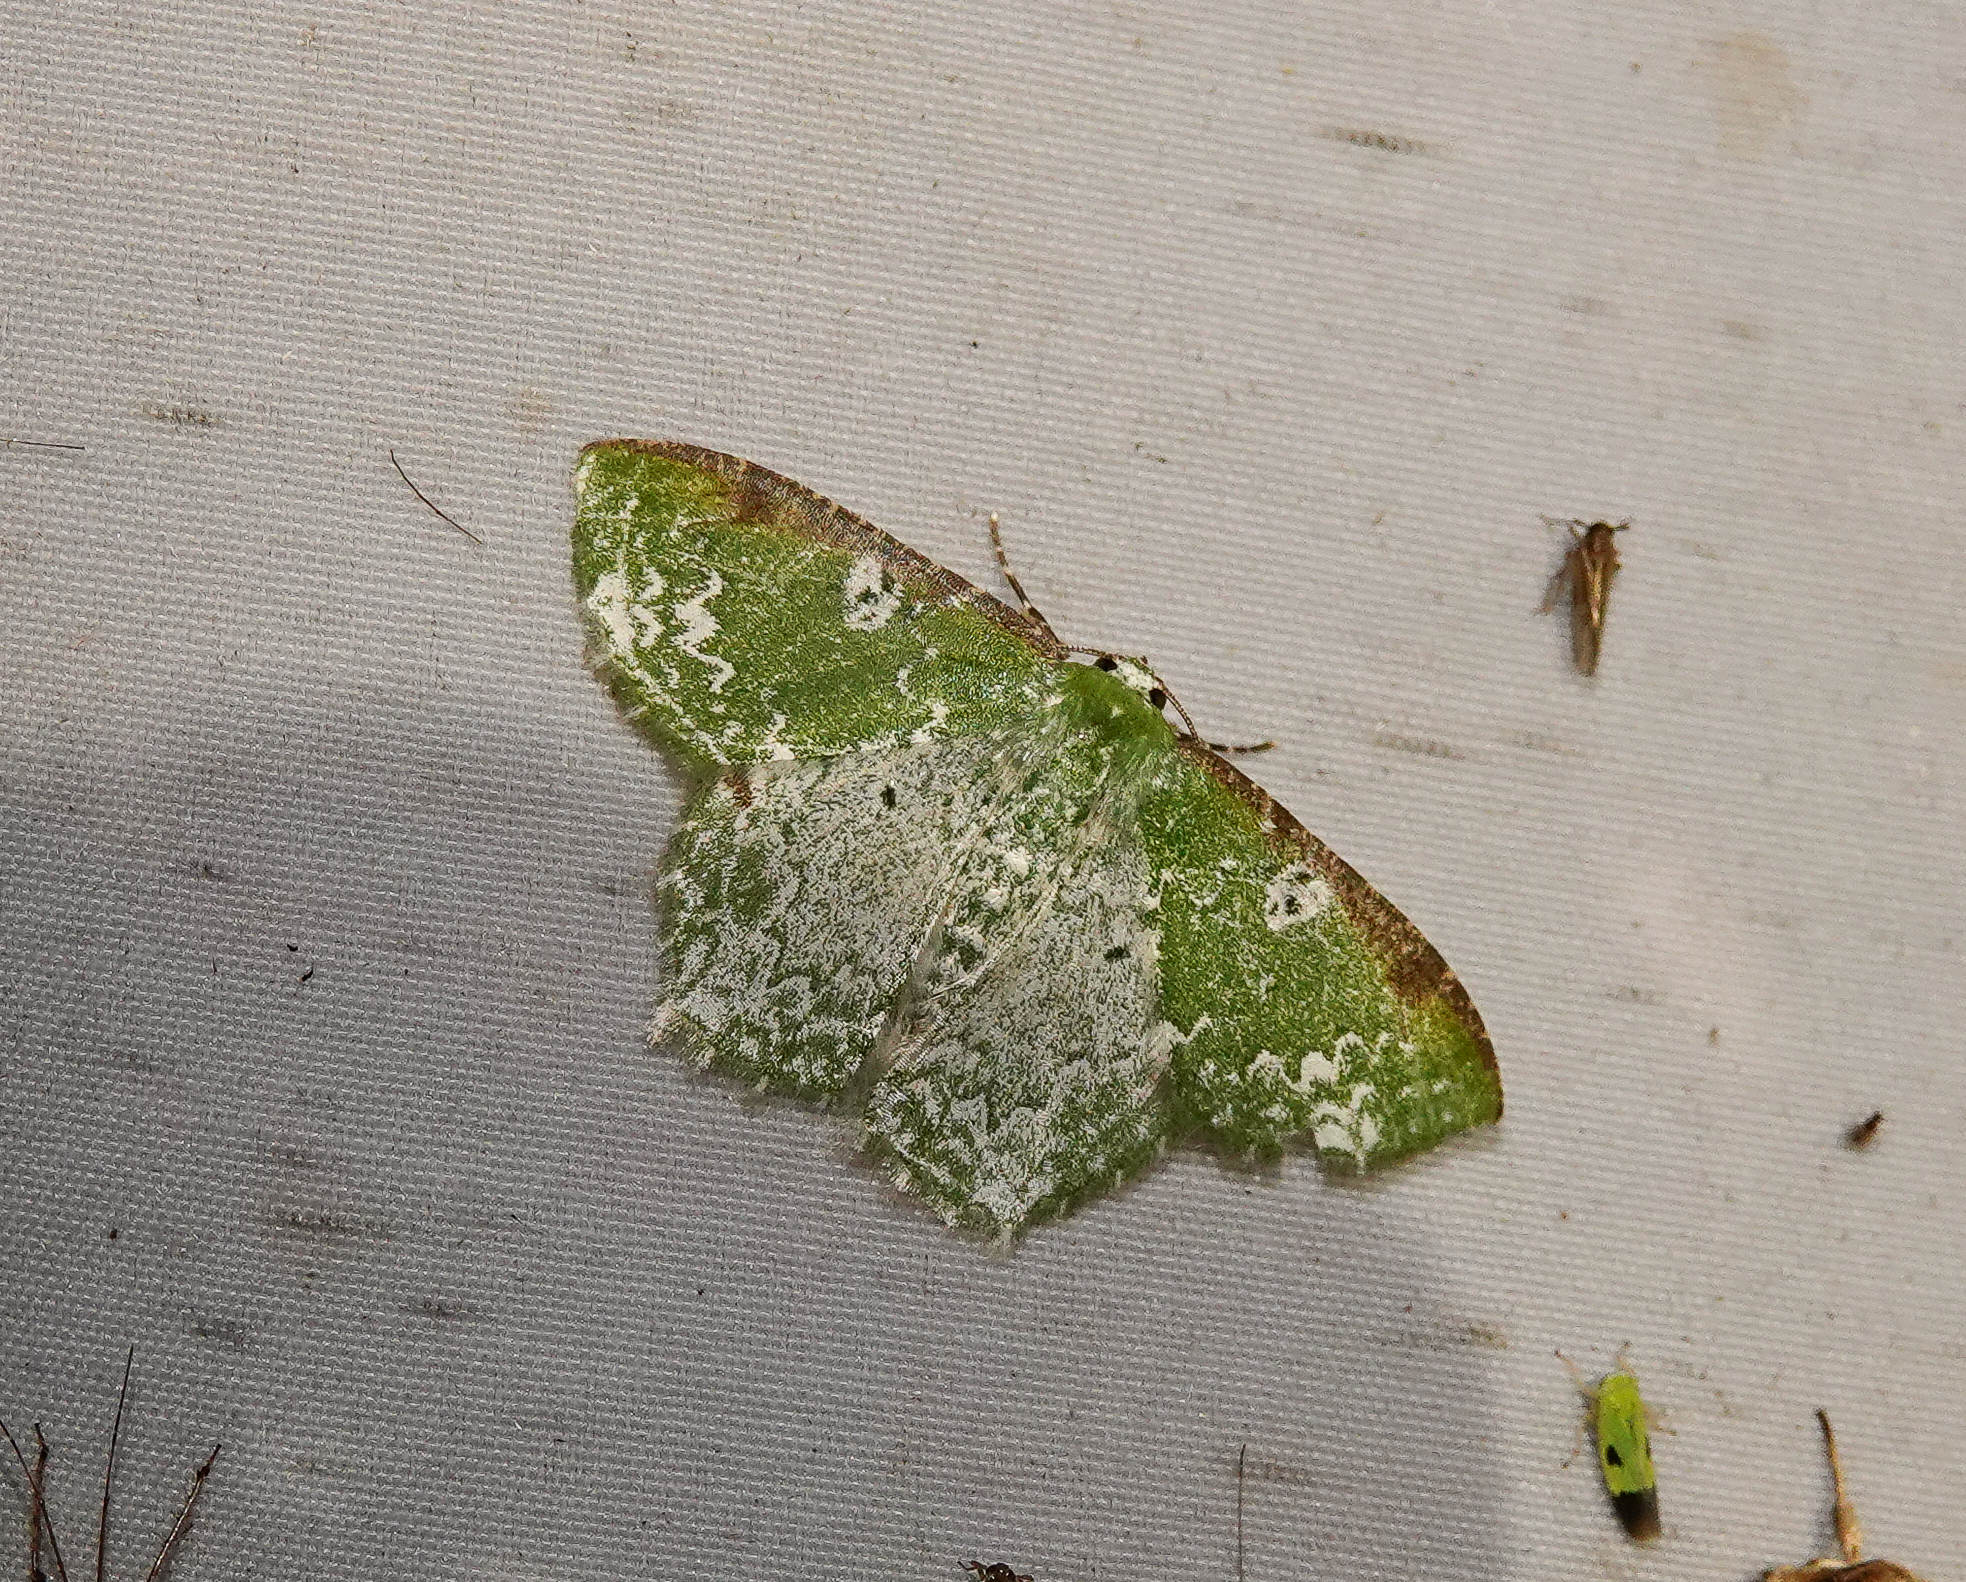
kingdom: Animalia
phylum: Arthropoda
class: Insecta
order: Lepidoptera
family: Geometridae
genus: Eucyclodes
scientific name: Eucyclodes divapala
